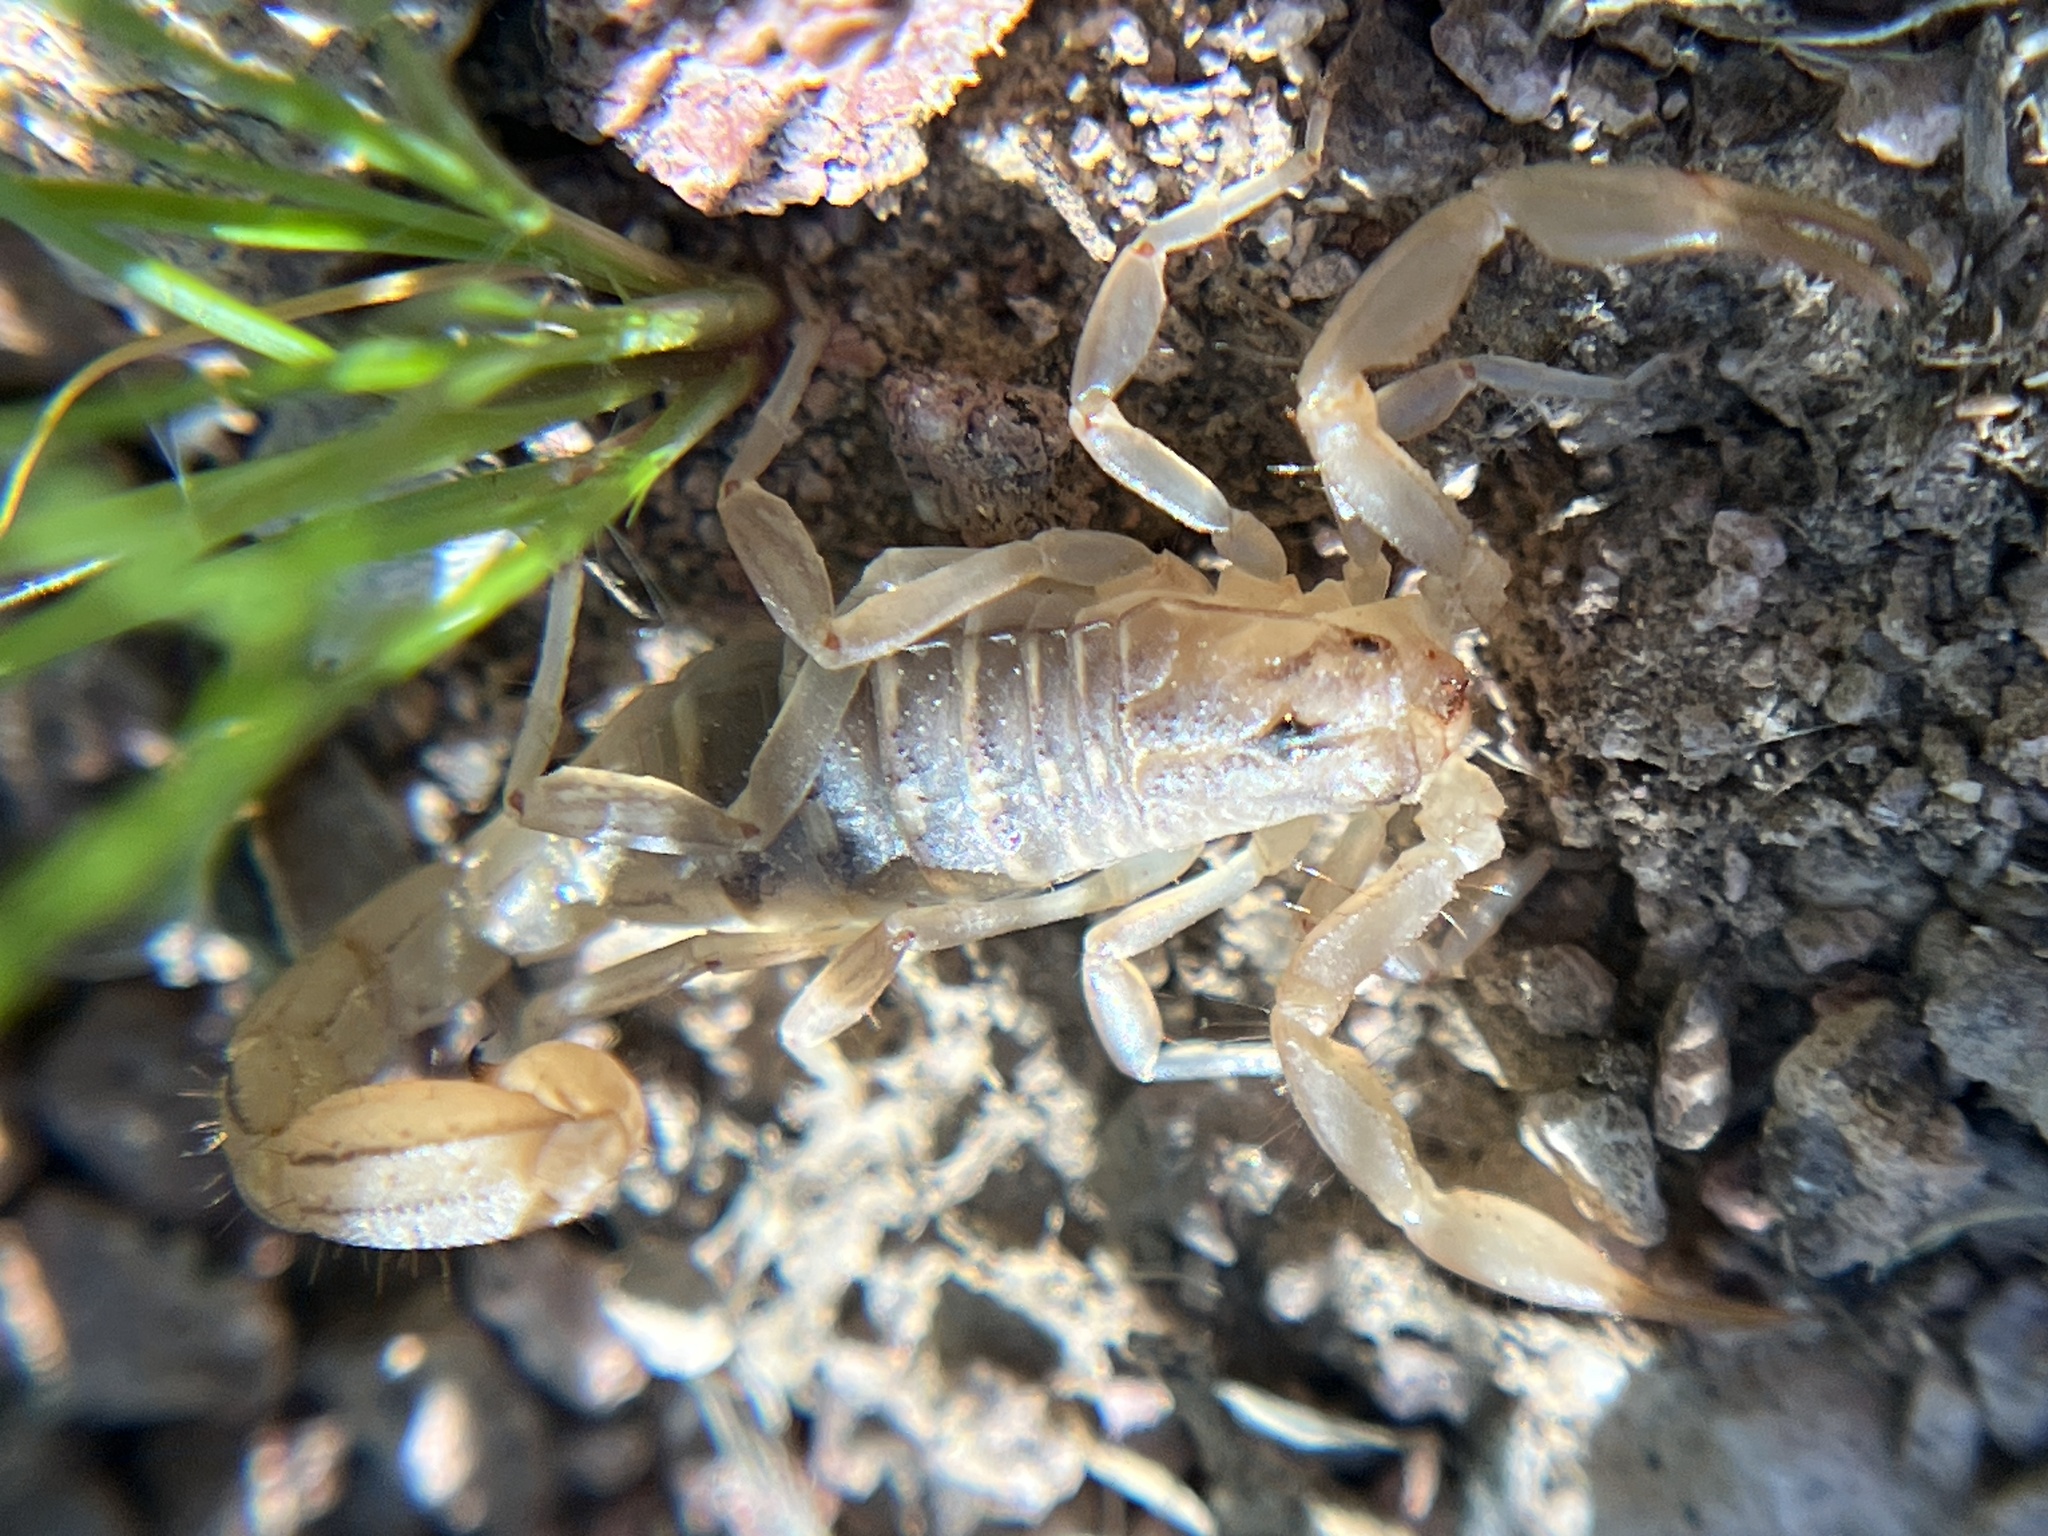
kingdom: Animalia
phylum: Arthropoda
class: Arachnida
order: Scorpiones
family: Vaejovidae
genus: Paravaejovis
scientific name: Paravaejovis spinigerus
